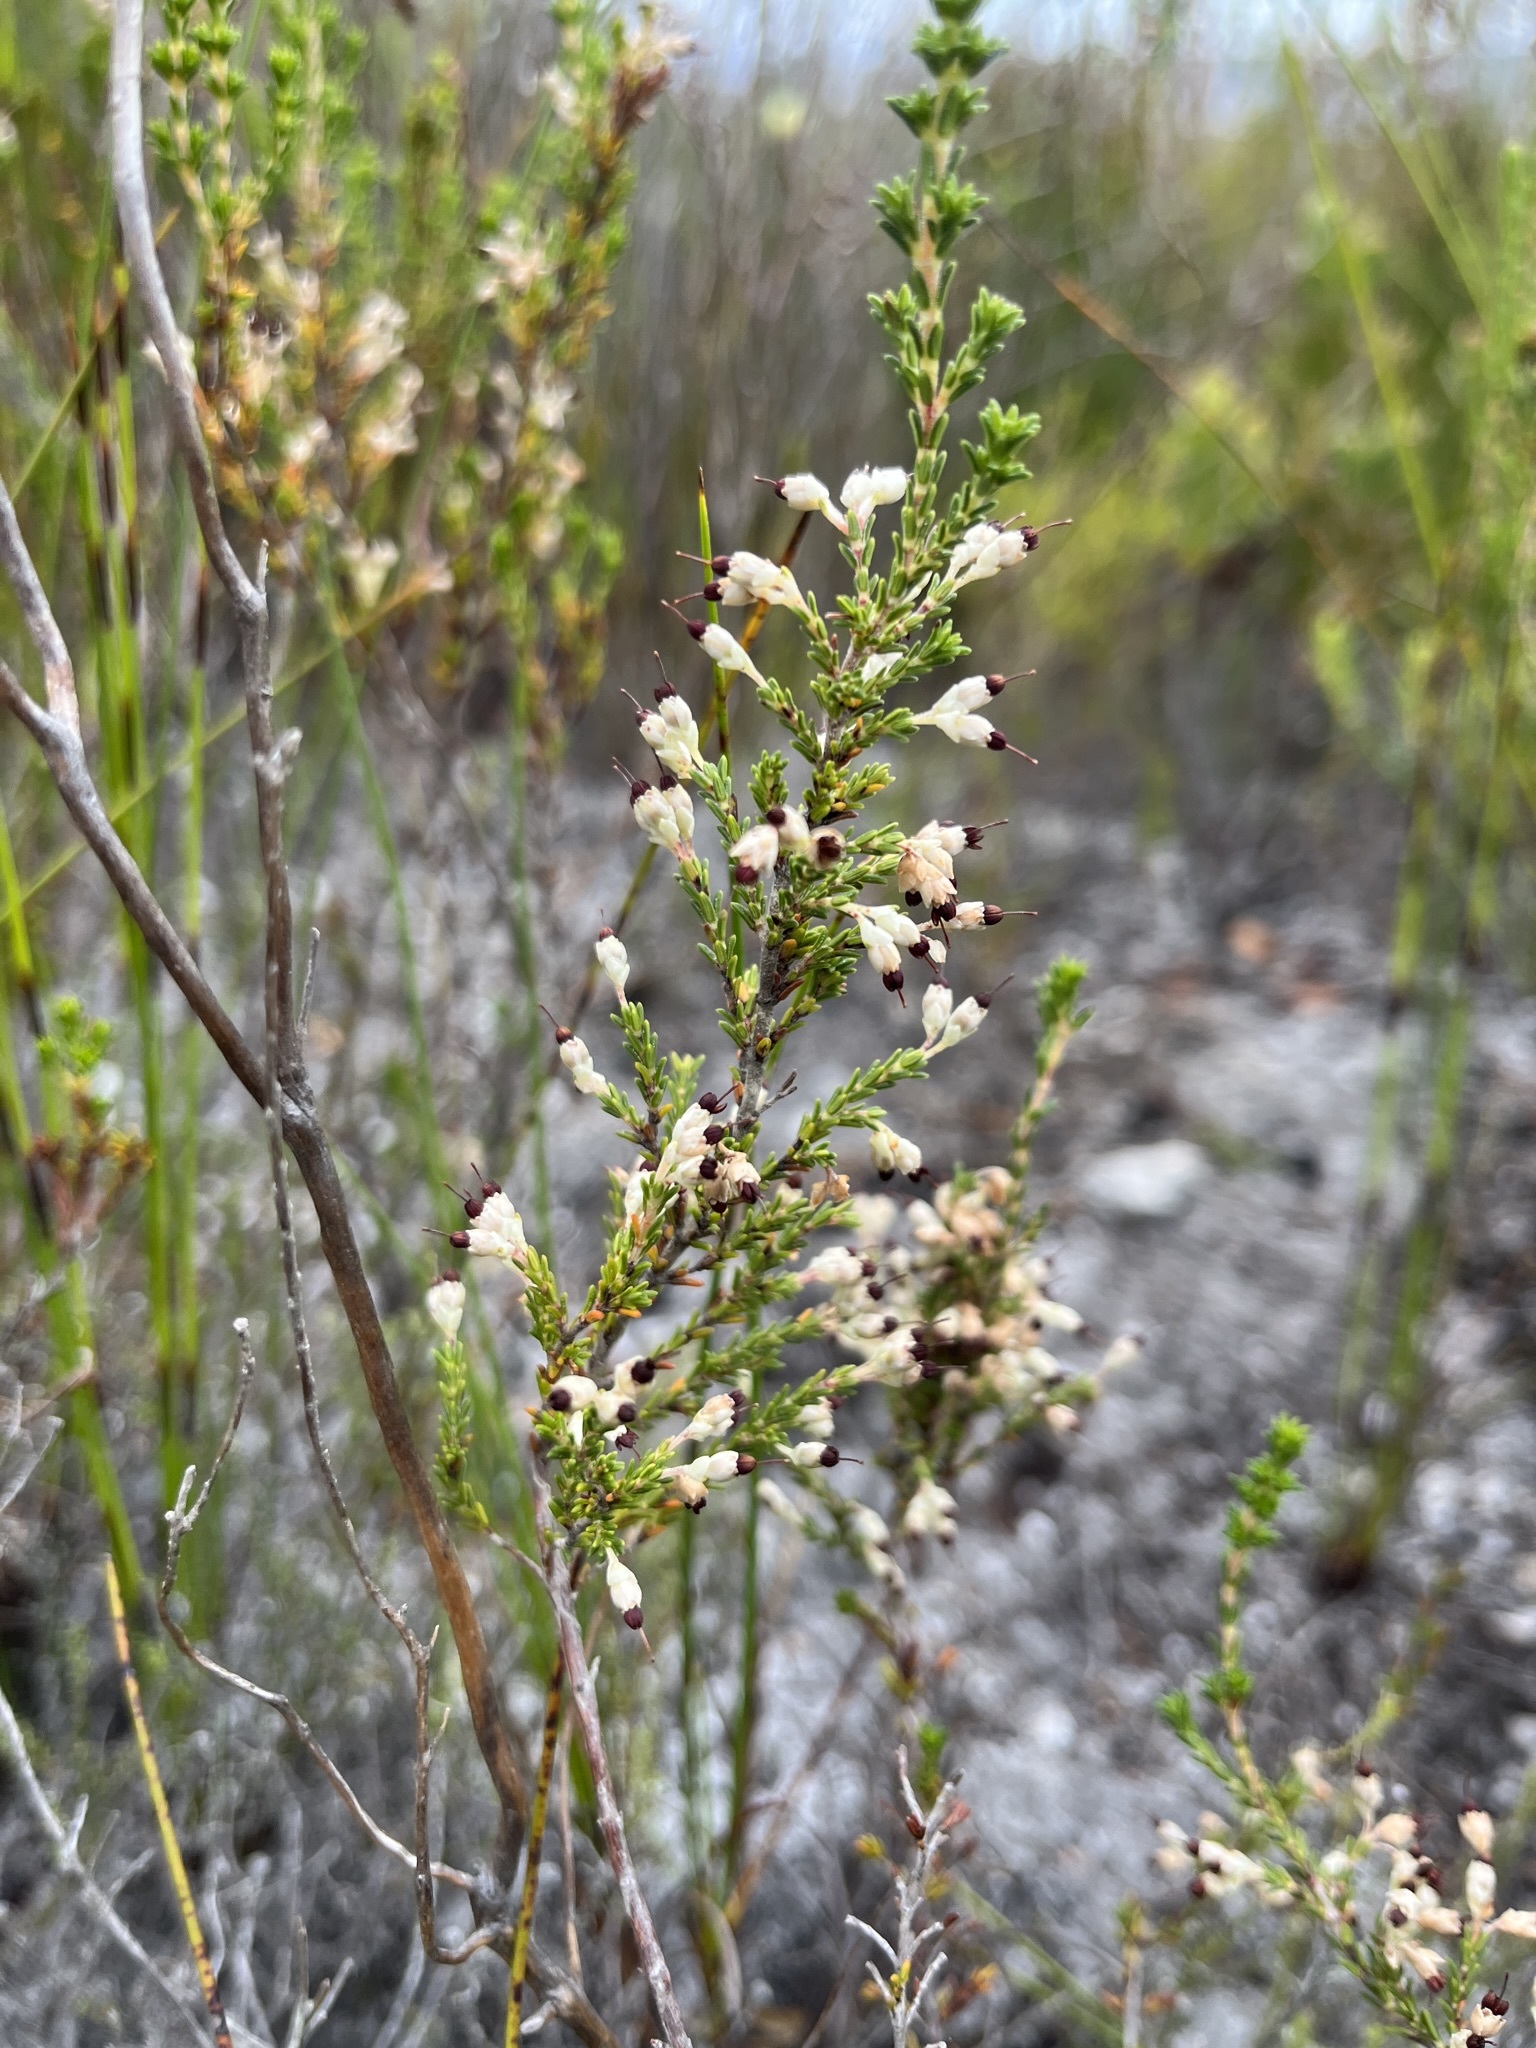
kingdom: Plantae
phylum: Tracheophyta
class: Magnoliopsida
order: Ericales
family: Ericaceae
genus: Erica
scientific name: Erica imbricata
